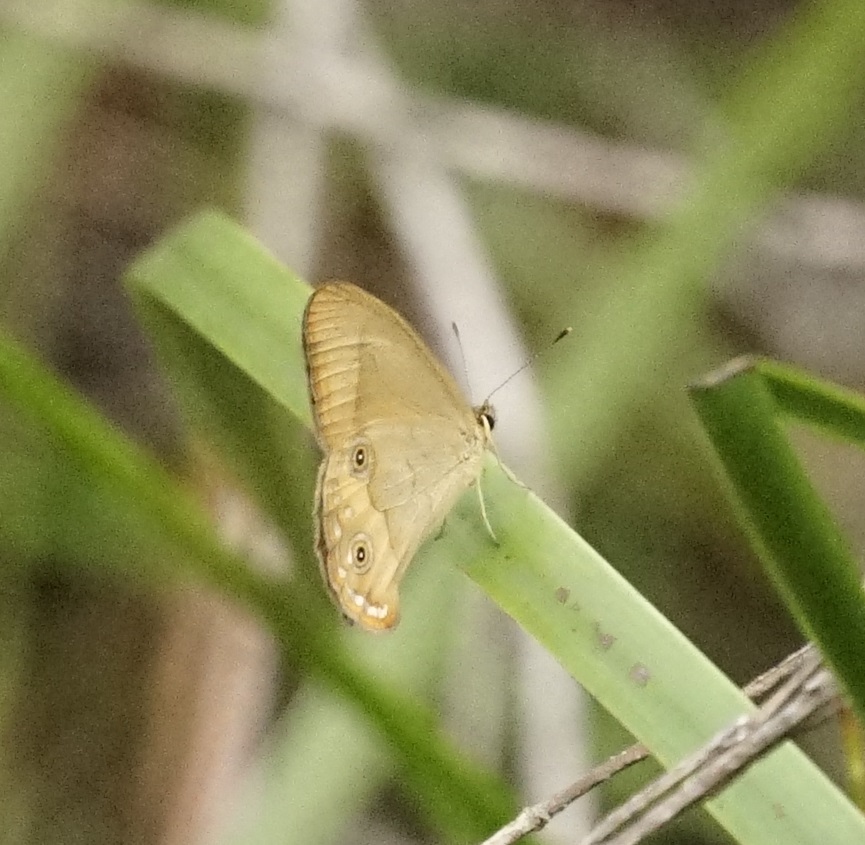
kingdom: Animalia
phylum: Arthropoda
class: Insecta
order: Lepidoptera
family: Nymphalidae
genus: Hypocysta
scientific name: Hypocysta metirius
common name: Brown ringlet
